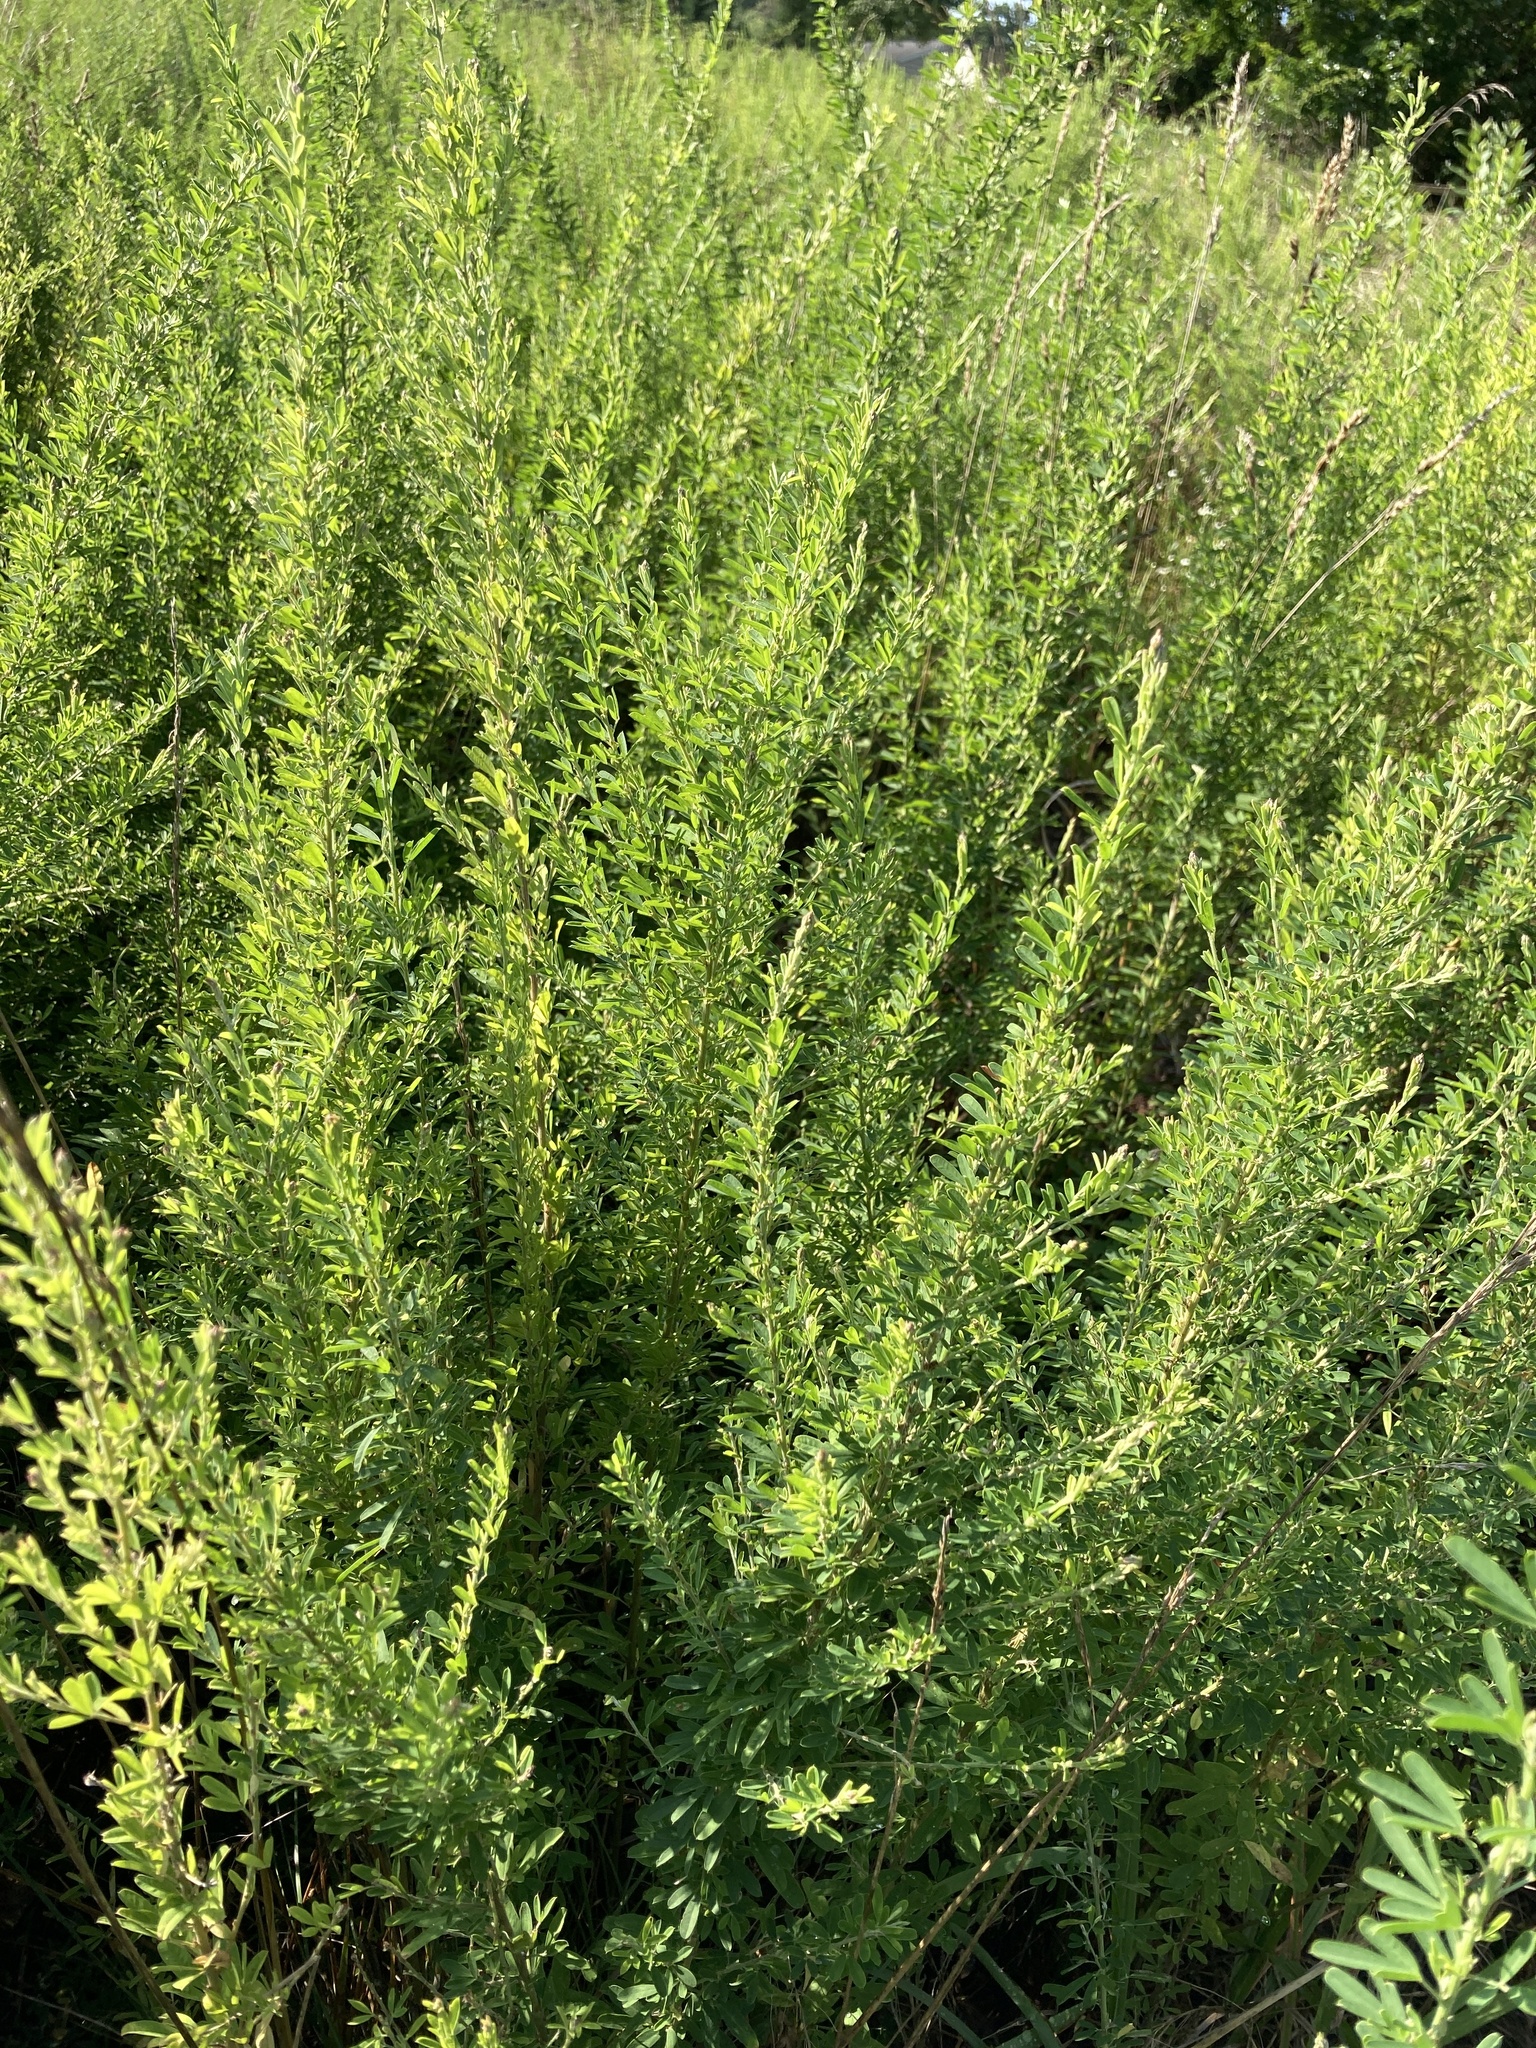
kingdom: Plantae
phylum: Tracheophyta
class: Magnoliopsida
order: Fabales
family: Fabaceae
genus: Lespedeza
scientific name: Lespedeza cuneata
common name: Chinese bush-clover
